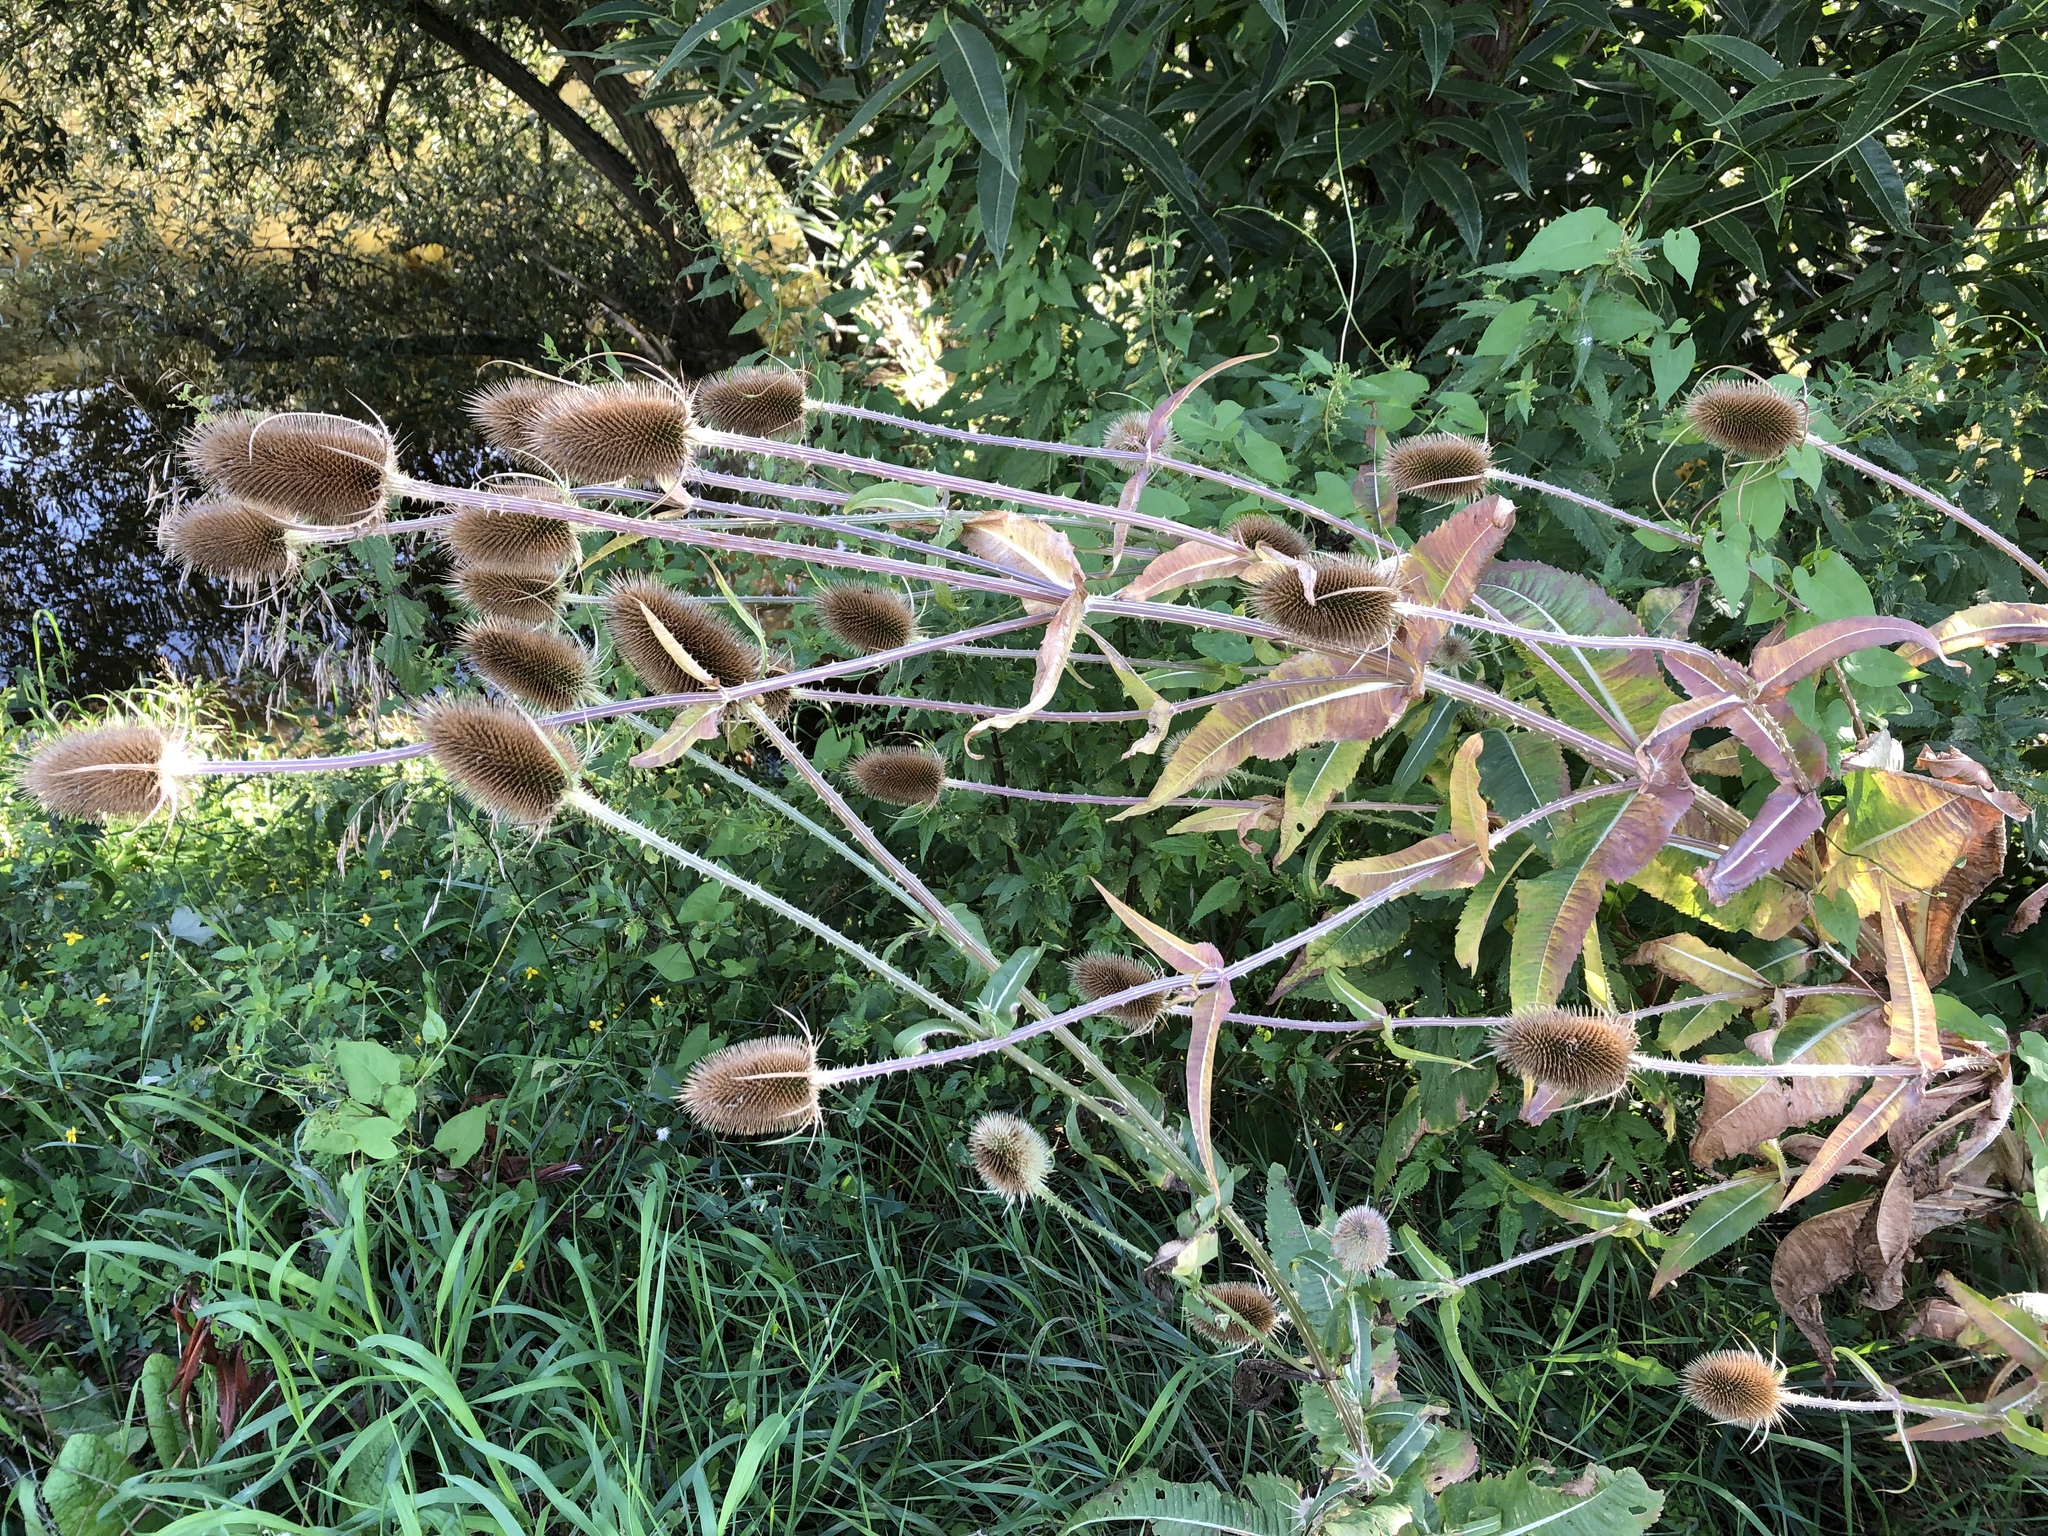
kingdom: Plantae
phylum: Tracheophyta
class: Magnoliopsida
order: Dipsacales
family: Caprifoliaceae
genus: Dipsacus
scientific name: Dipsacus fullonum
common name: Teasel
